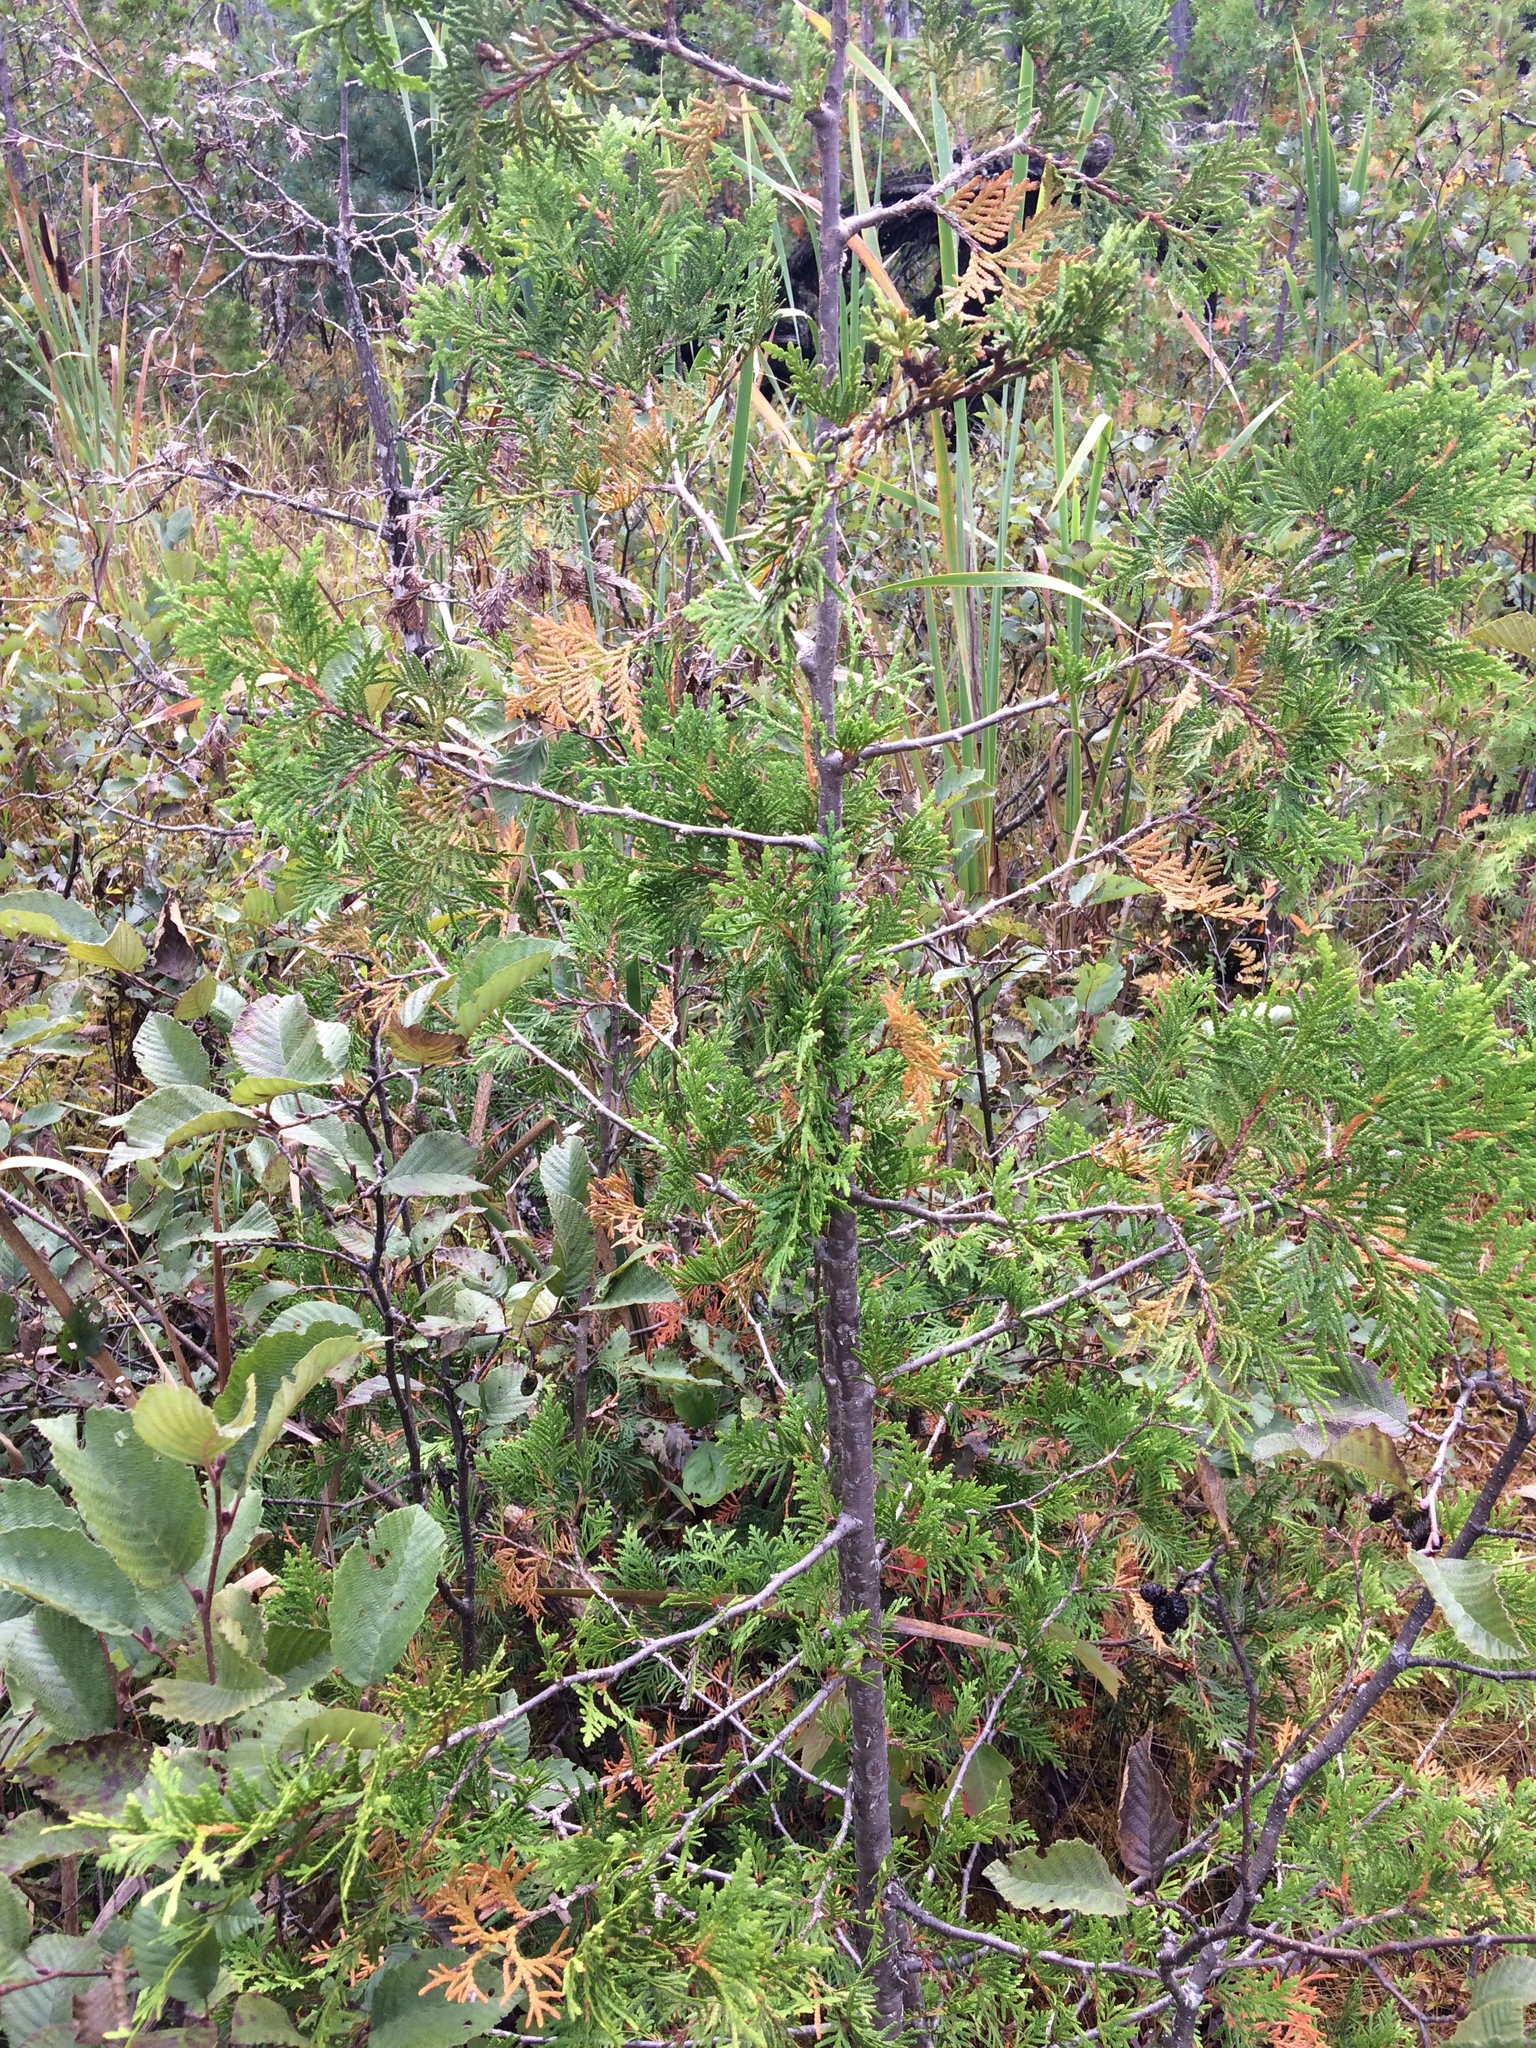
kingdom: Plantae
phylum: Tracheophyta
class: Pinopsida
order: Pinales
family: Cupressaceae
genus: Thuja
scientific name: Thuja occidentalis
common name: Northern white-cedar
